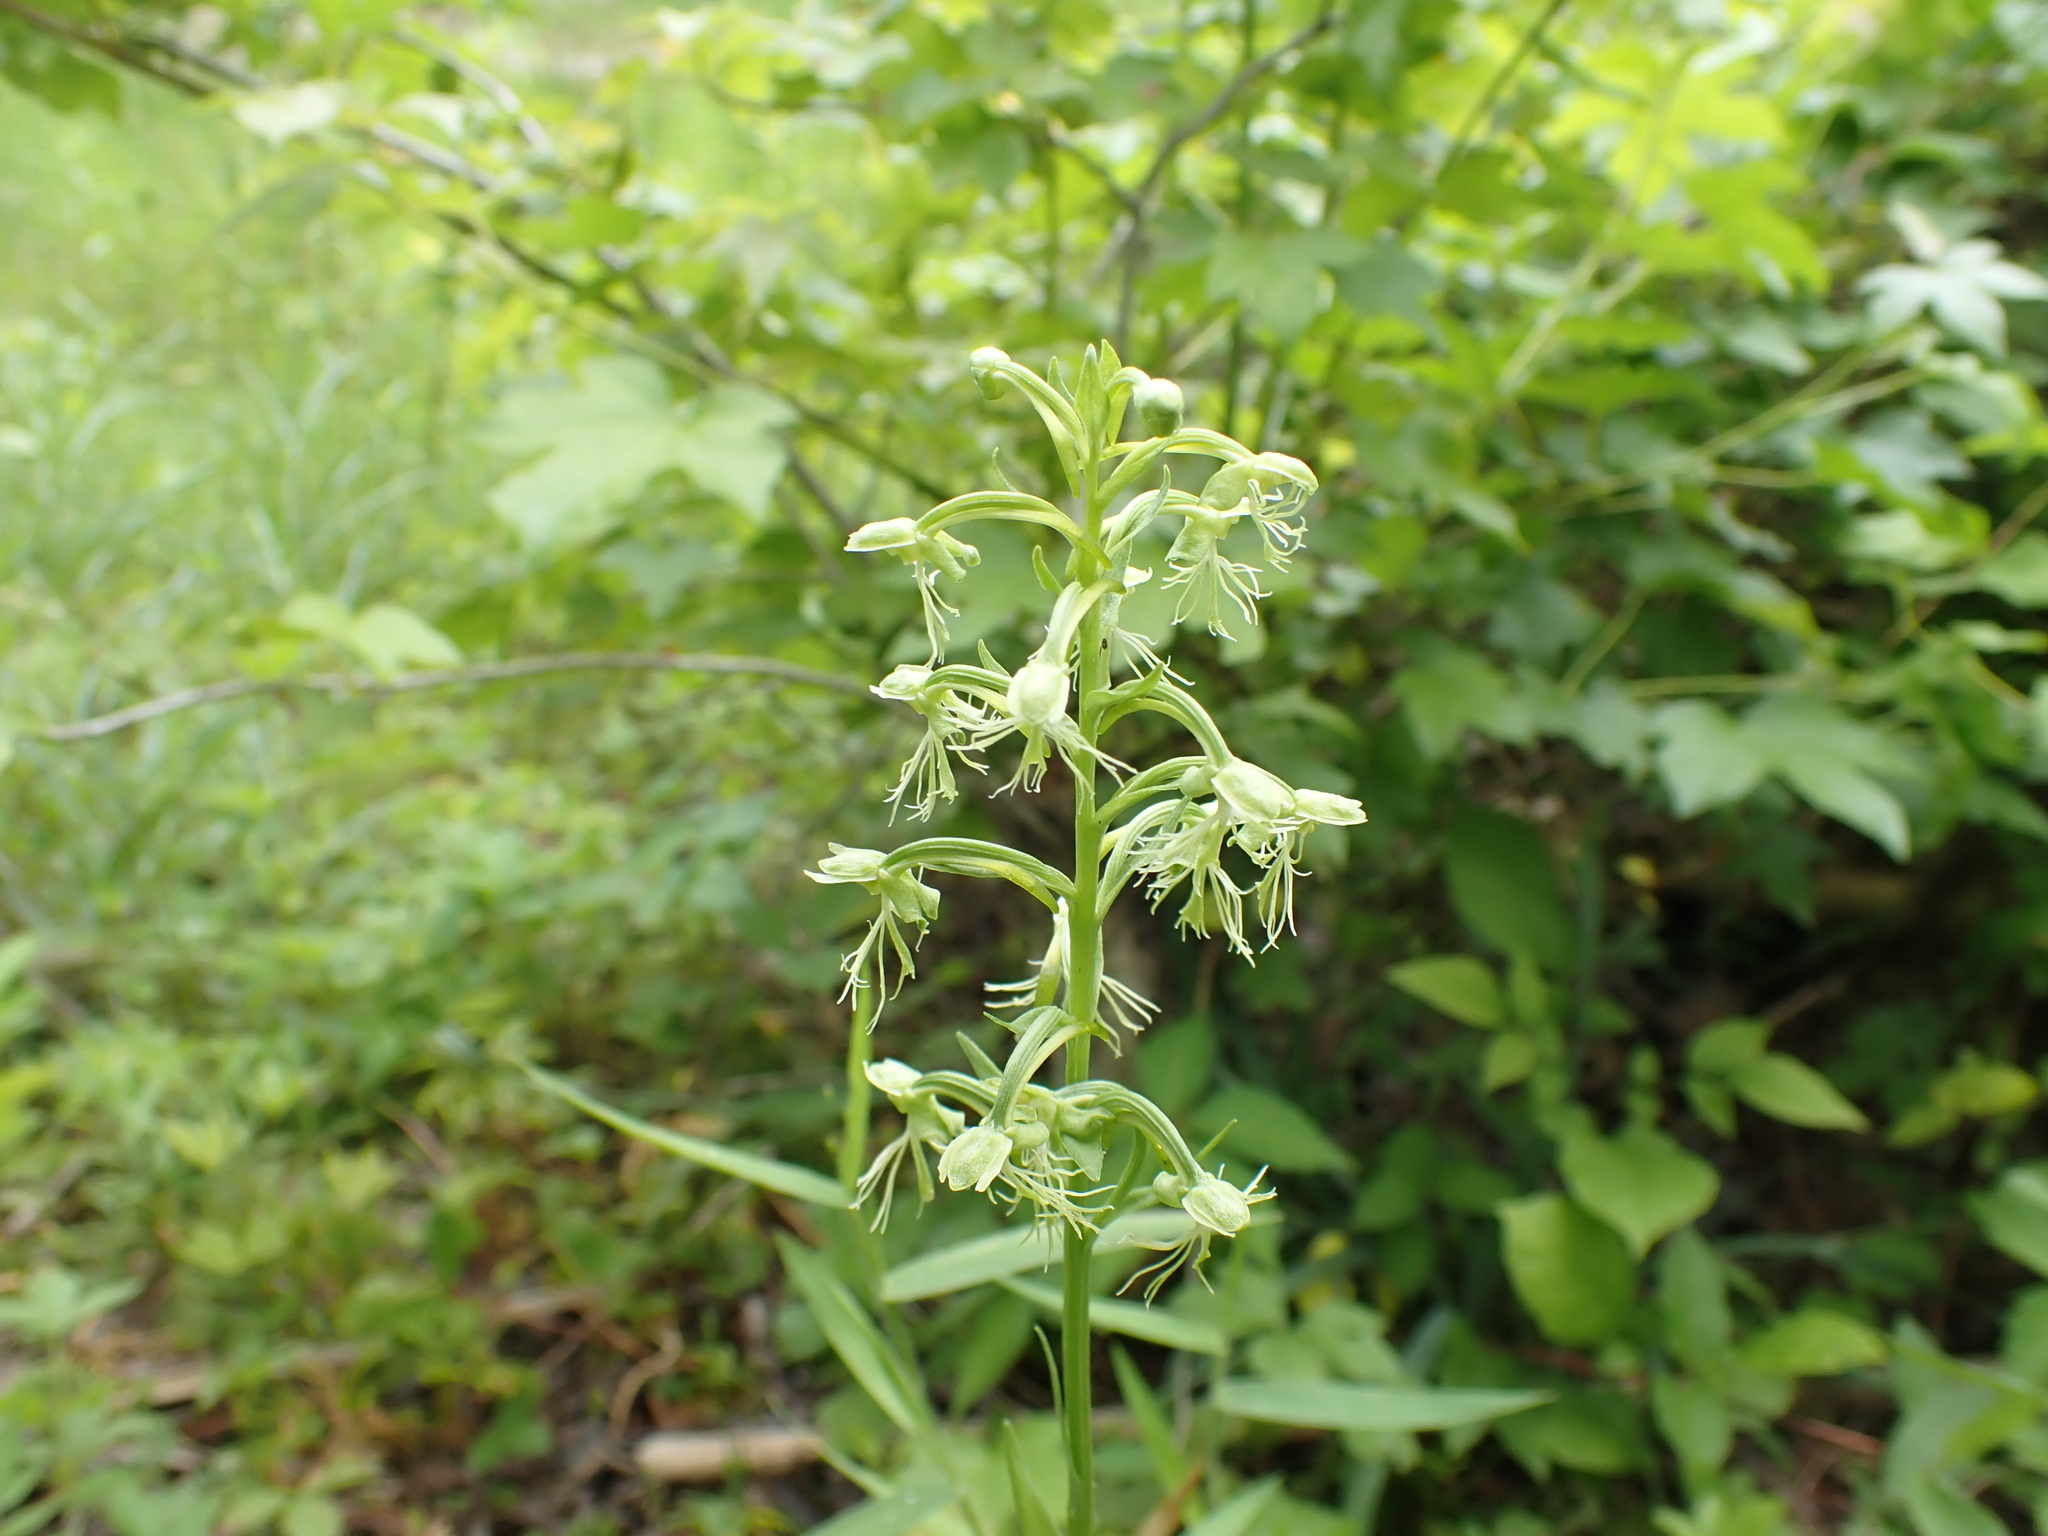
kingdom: Plantae
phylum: Tracheophyta
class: Liliopsida
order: Asparagales
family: Orchidaceae
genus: Platanthera
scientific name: Platanthera lacera
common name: Green fringed orchid
